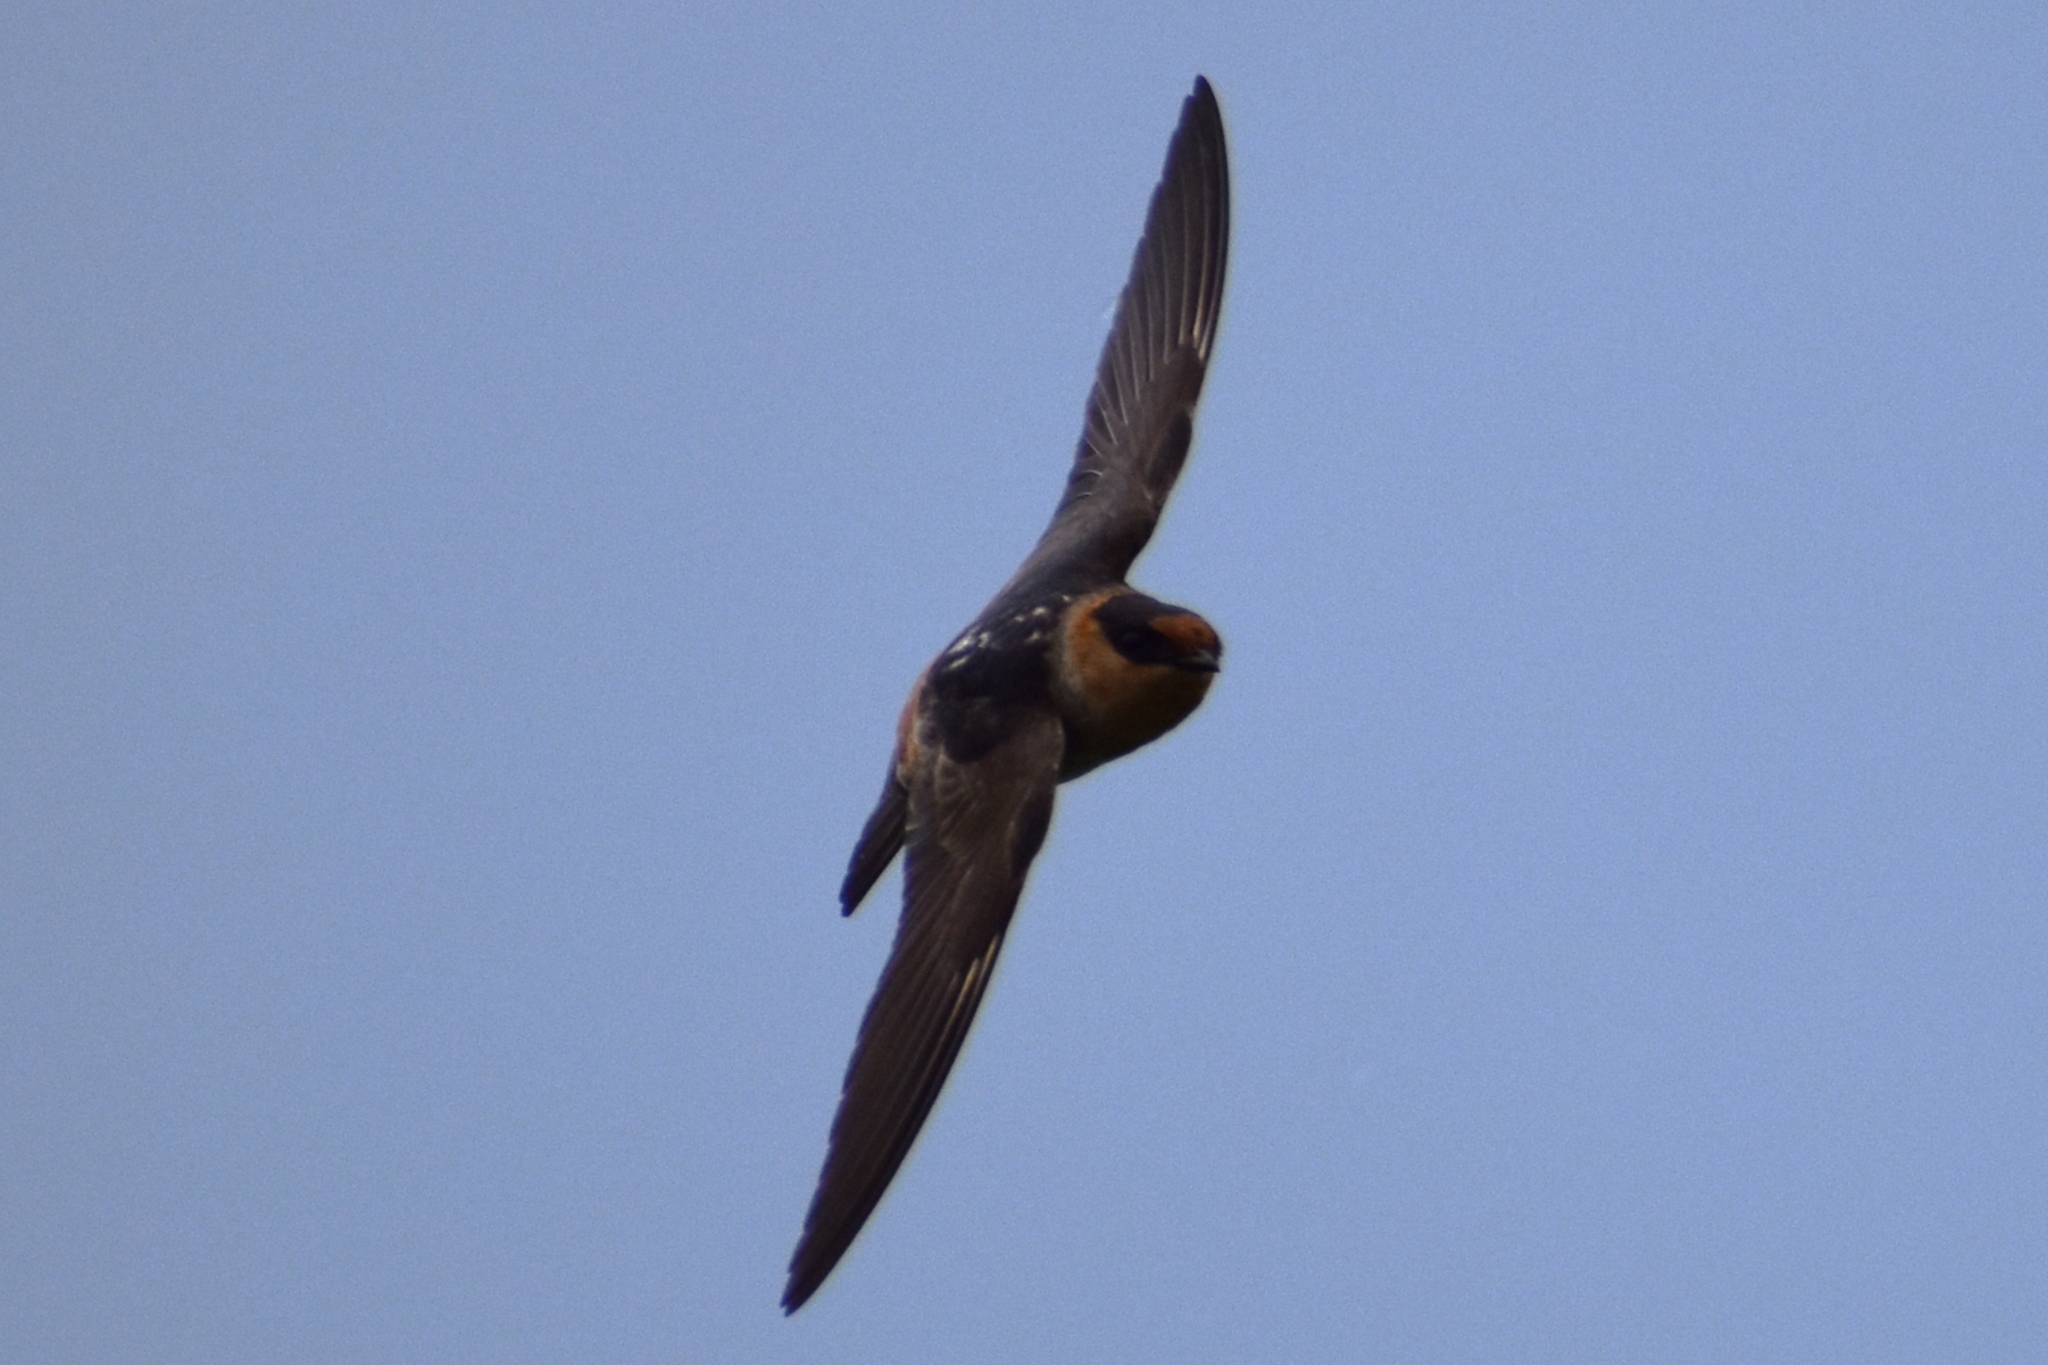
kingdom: Animalia
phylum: Chordata
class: Aves
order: Passeriformes
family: Hirundinidae
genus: Petrochelidon
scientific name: Petrochelidon fulva
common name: Cave swallow
